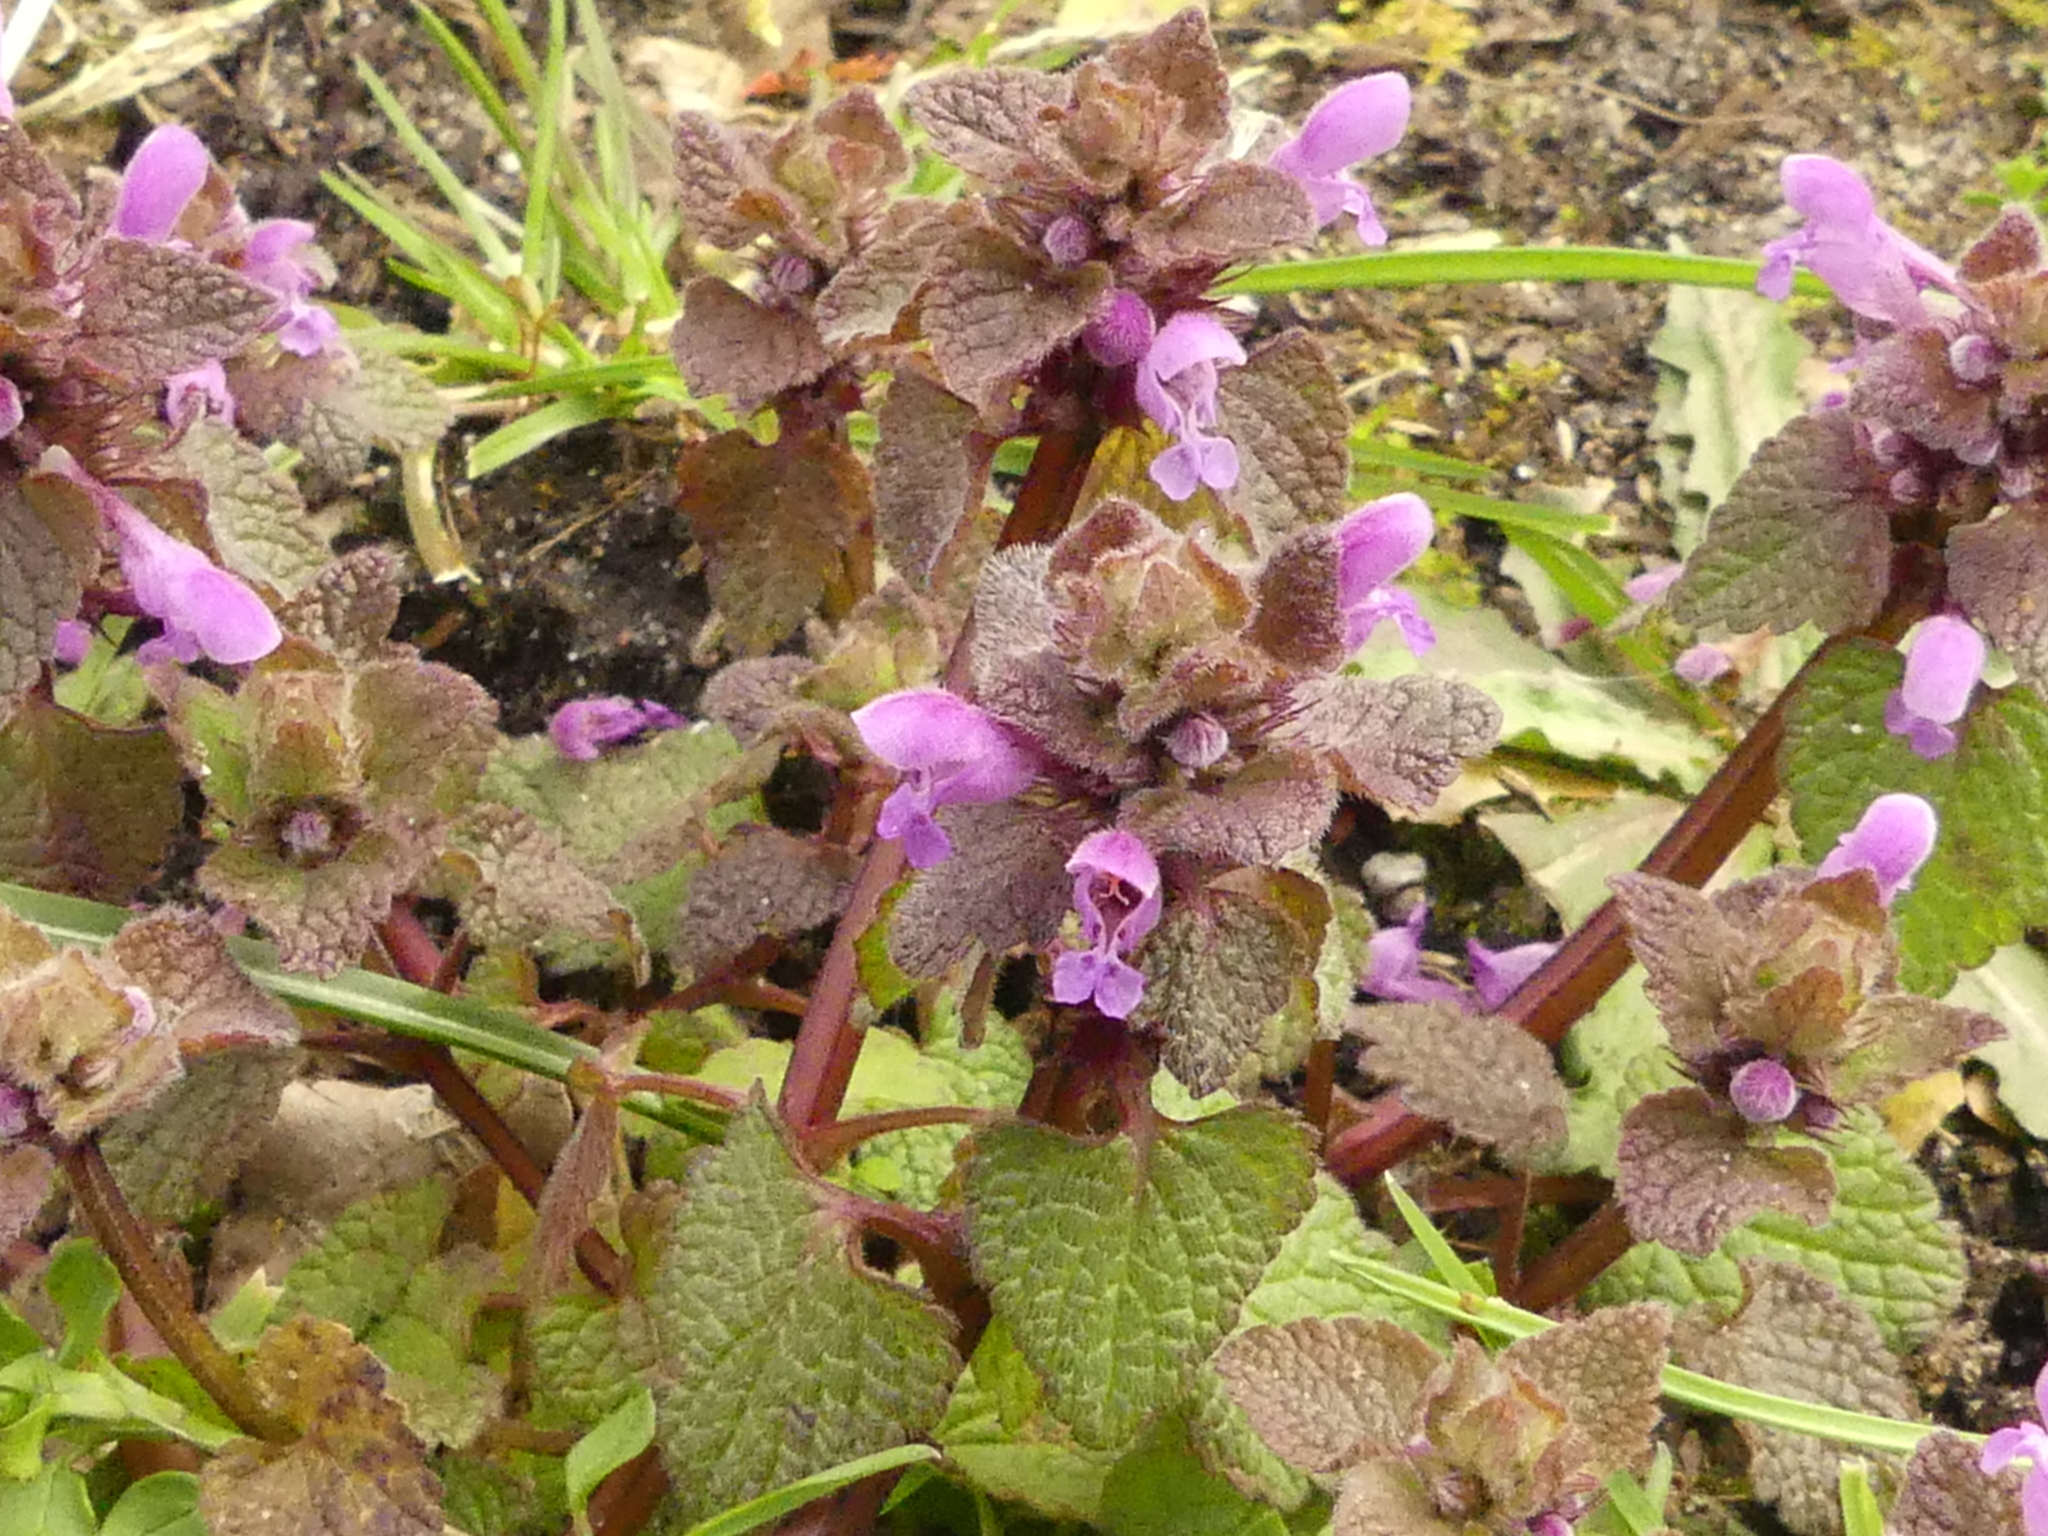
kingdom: Plantae
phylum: Tracheophyta
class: Magnoliopsida
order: Lamiales
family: Lamiaceae
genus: Lamium
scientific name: Lamium purpureum
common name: Red dead-nettle
